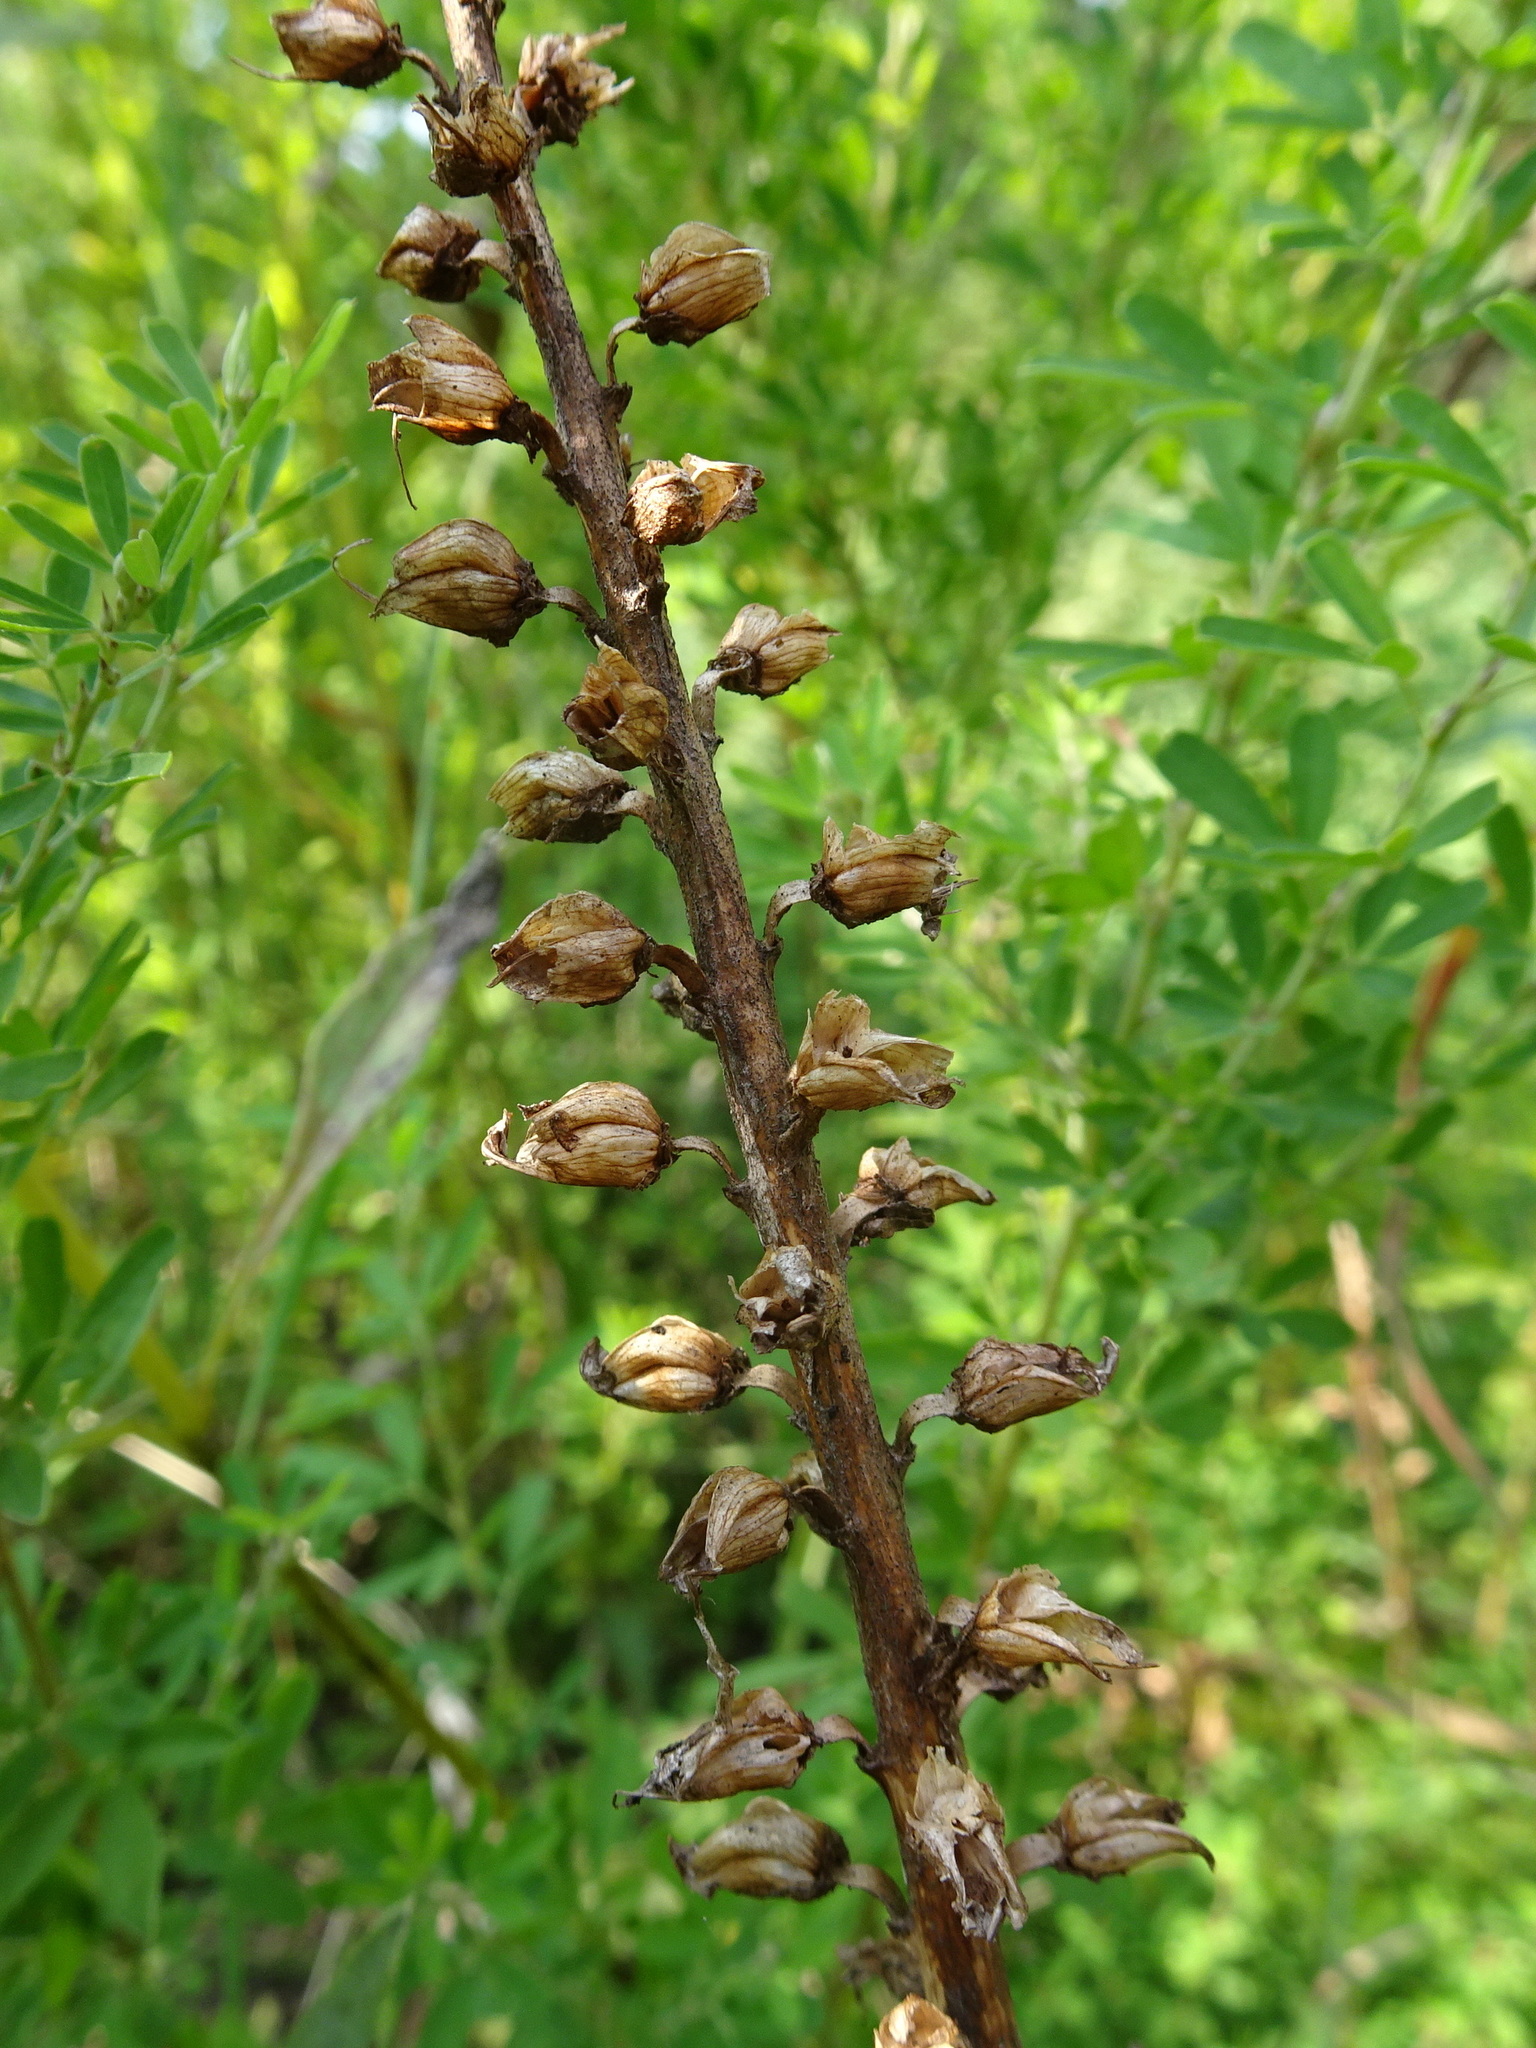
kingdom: Plantae
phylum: Tracheophyta
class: Magnoliopsida
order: Lamiales
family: Orobanchaceae
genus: Pedicularis
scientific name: Pedicularis canadensis
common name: Early lousewort
